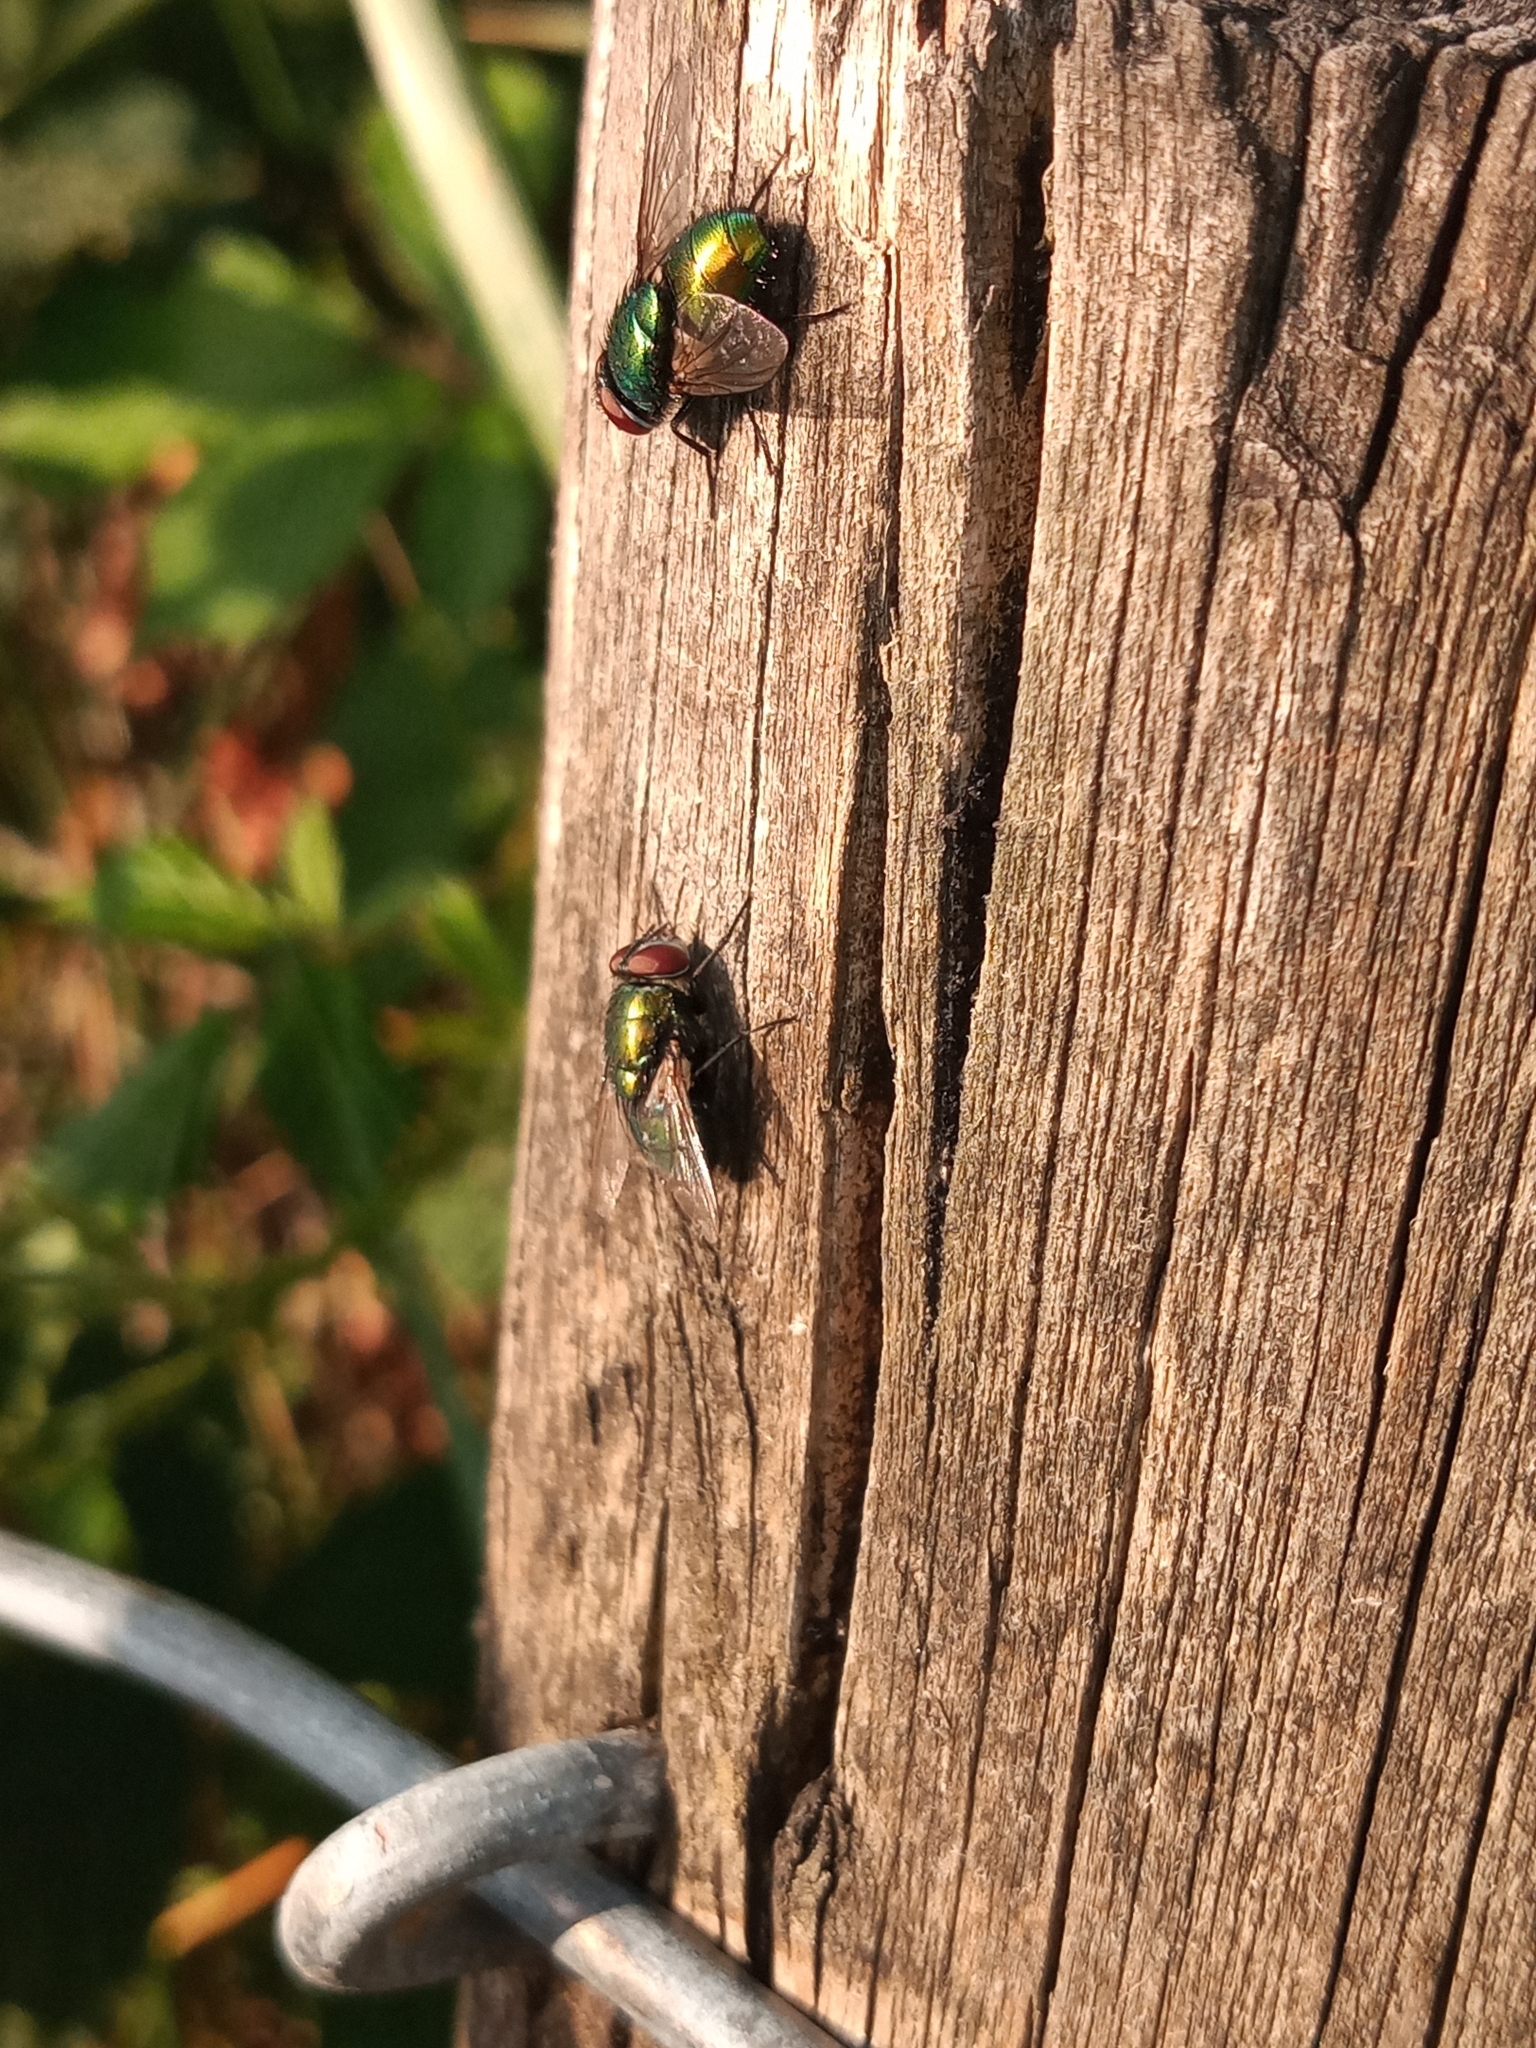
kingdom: Animalia
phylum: Arthropoda
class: Insecta
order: Diptera
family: Calliphoridae
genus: Lucilia
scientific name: Lucilia
